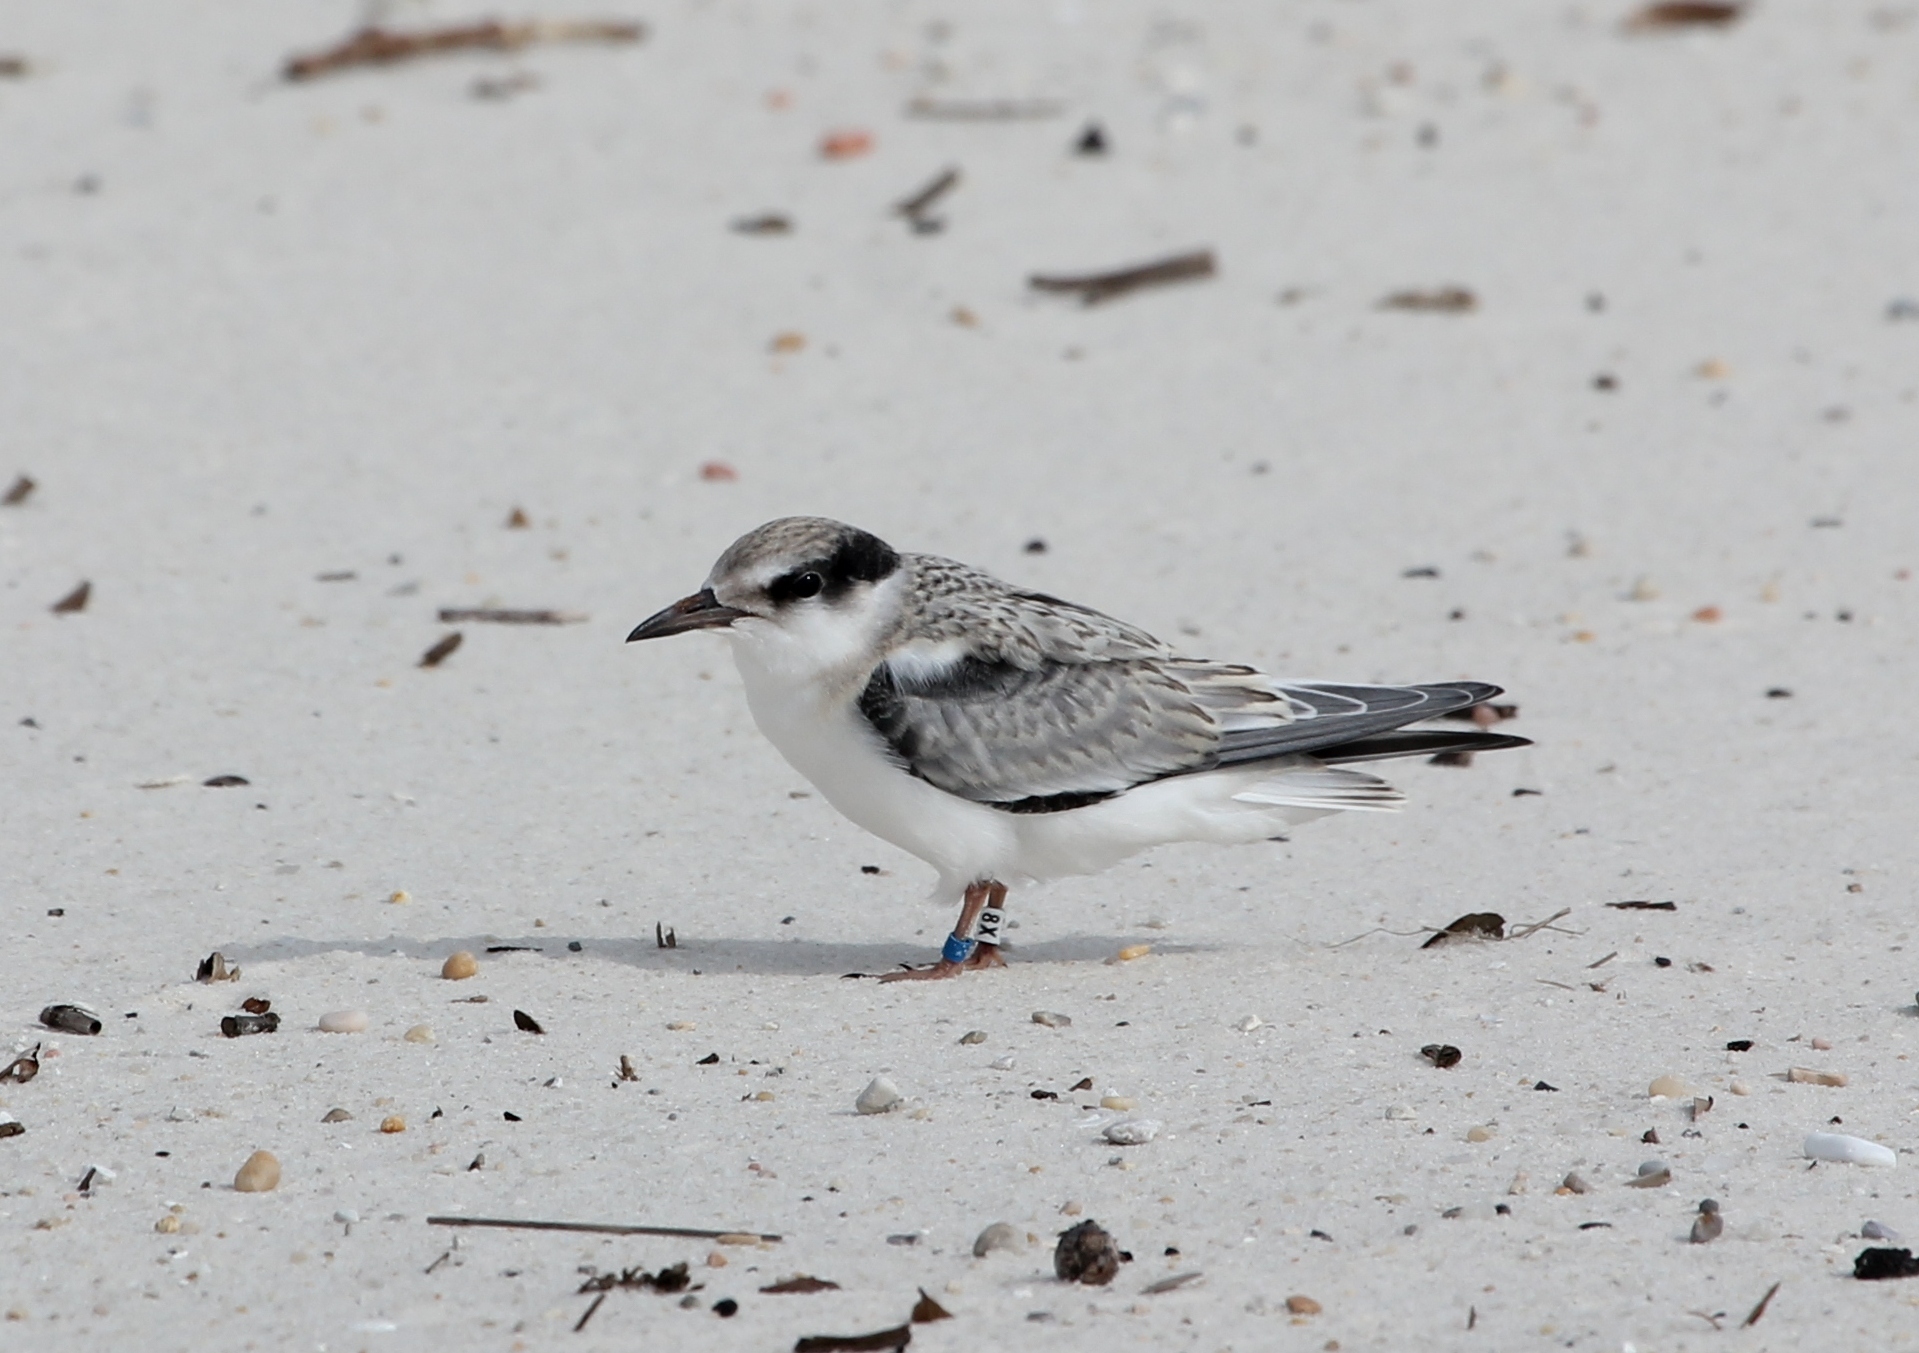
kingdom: Animalia
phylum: Chordata
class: Aves
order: Charadriiformes
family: Laridae
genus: Sternula
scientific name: Sternula antillarum
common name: Least tern
